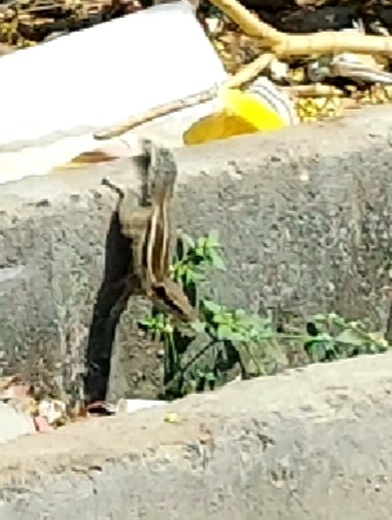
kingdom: Animalia
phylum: Chordata
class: Mammalia
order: Rodentia
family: Sciuridae
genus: Funambulus
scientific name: Funambulus pennantii
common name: Northern palm squirrel
